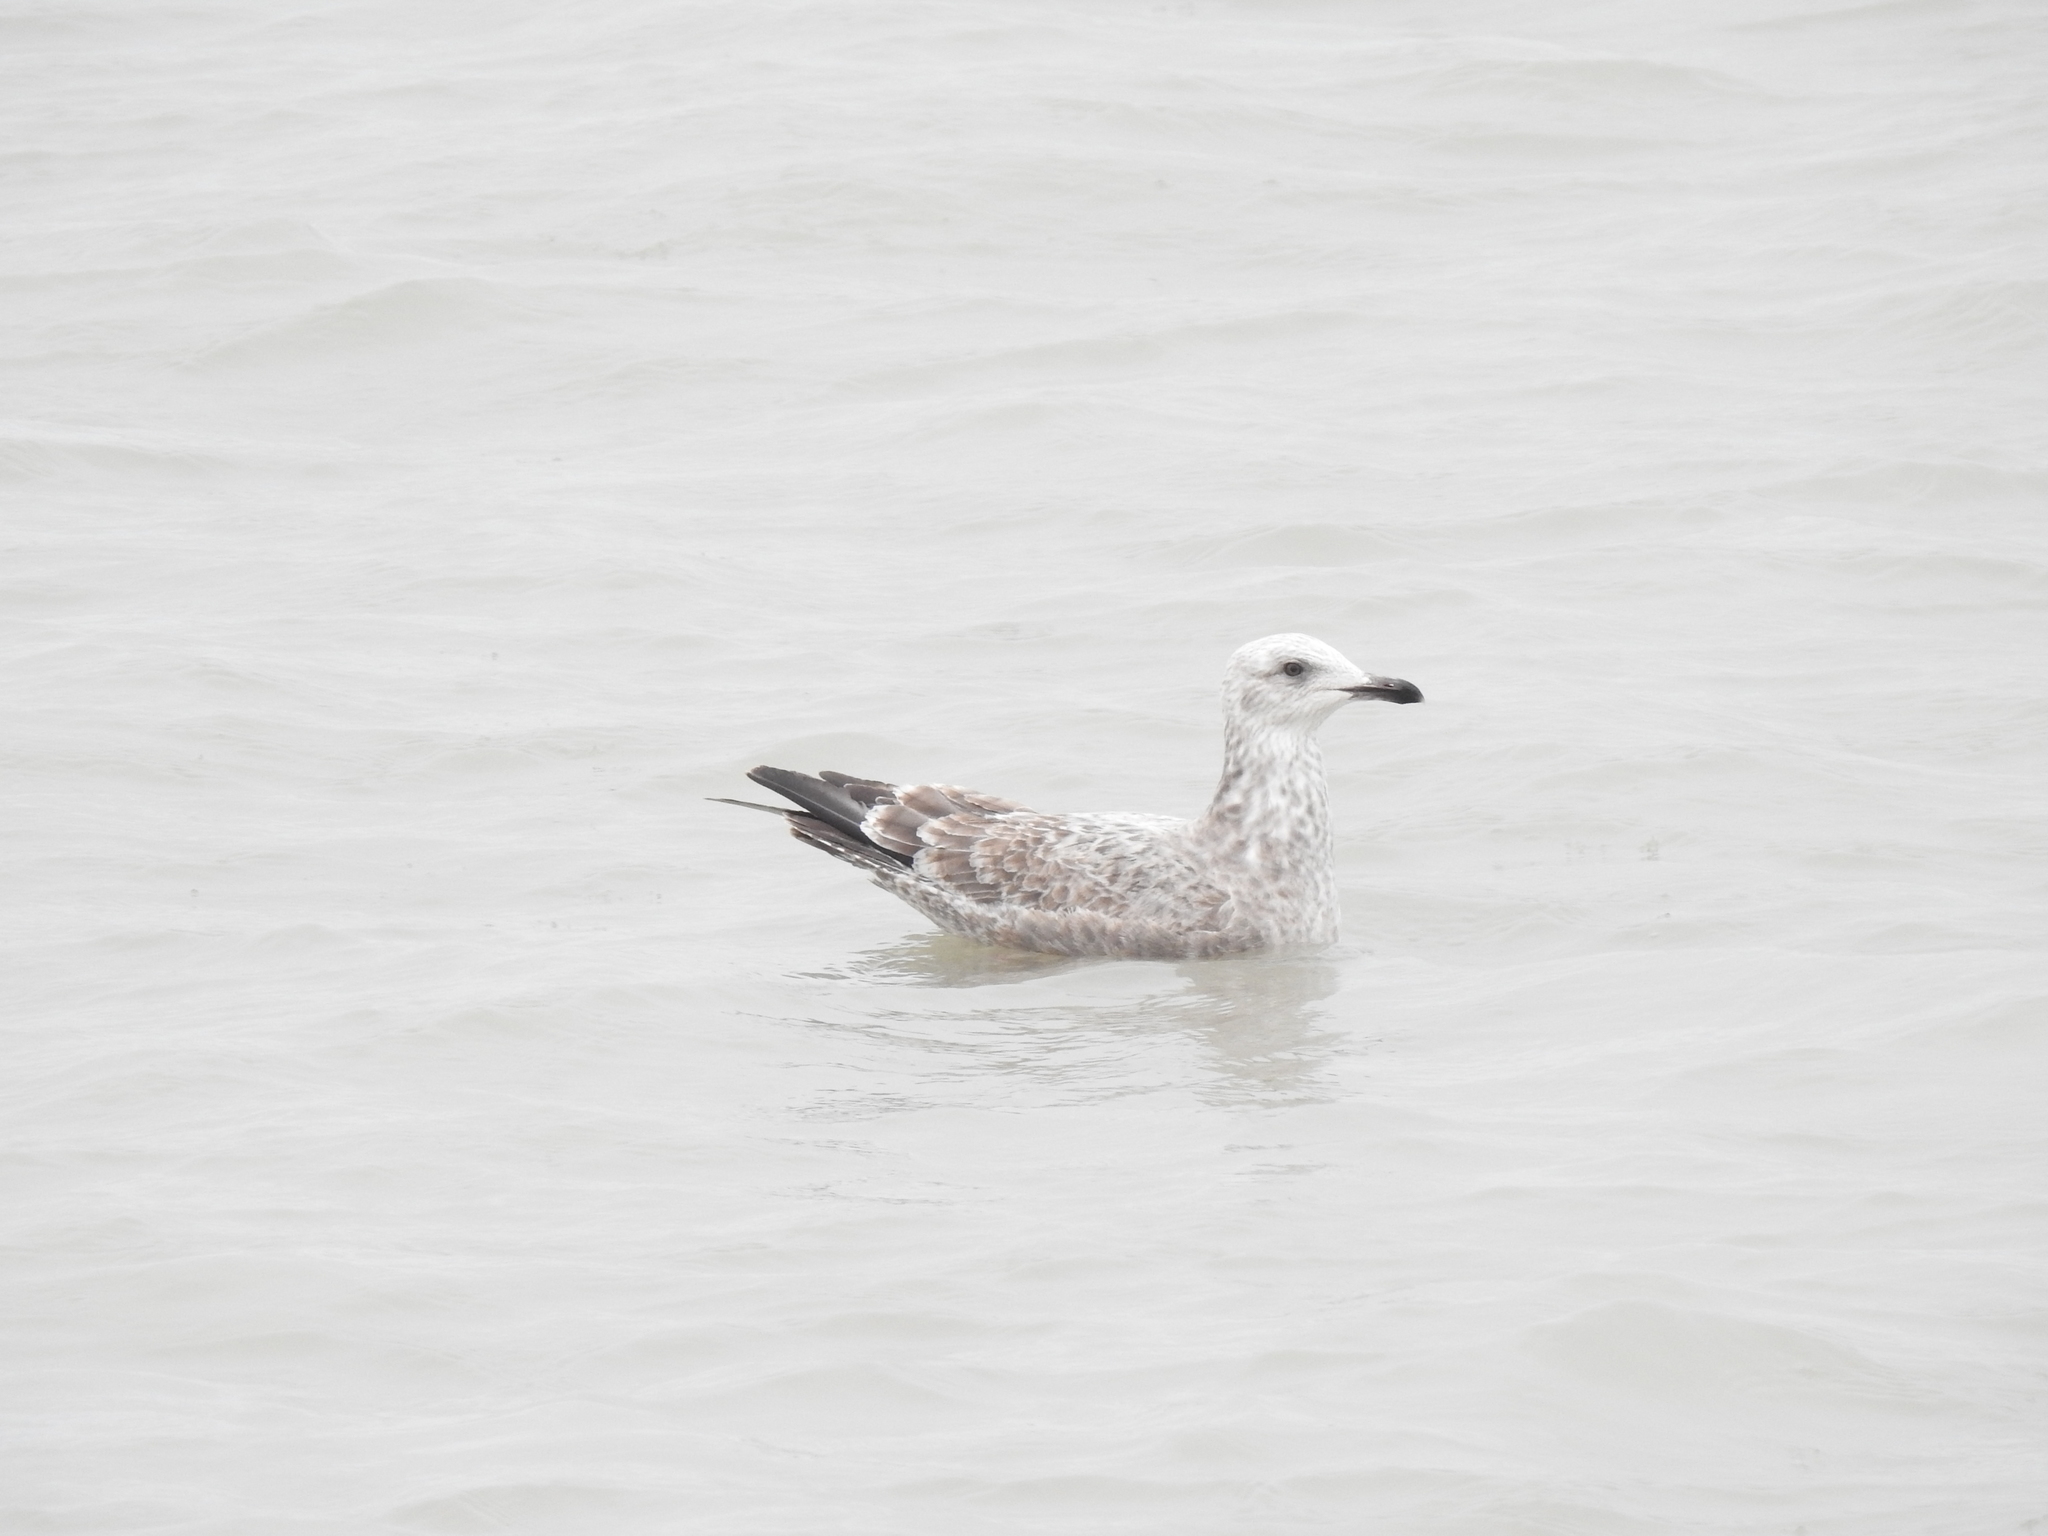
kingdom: Animalia
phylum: Chordata
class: Aves
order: Charadriiformes
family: Laridae
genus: Larus
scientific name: Larus argentatus
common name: Herring gull
